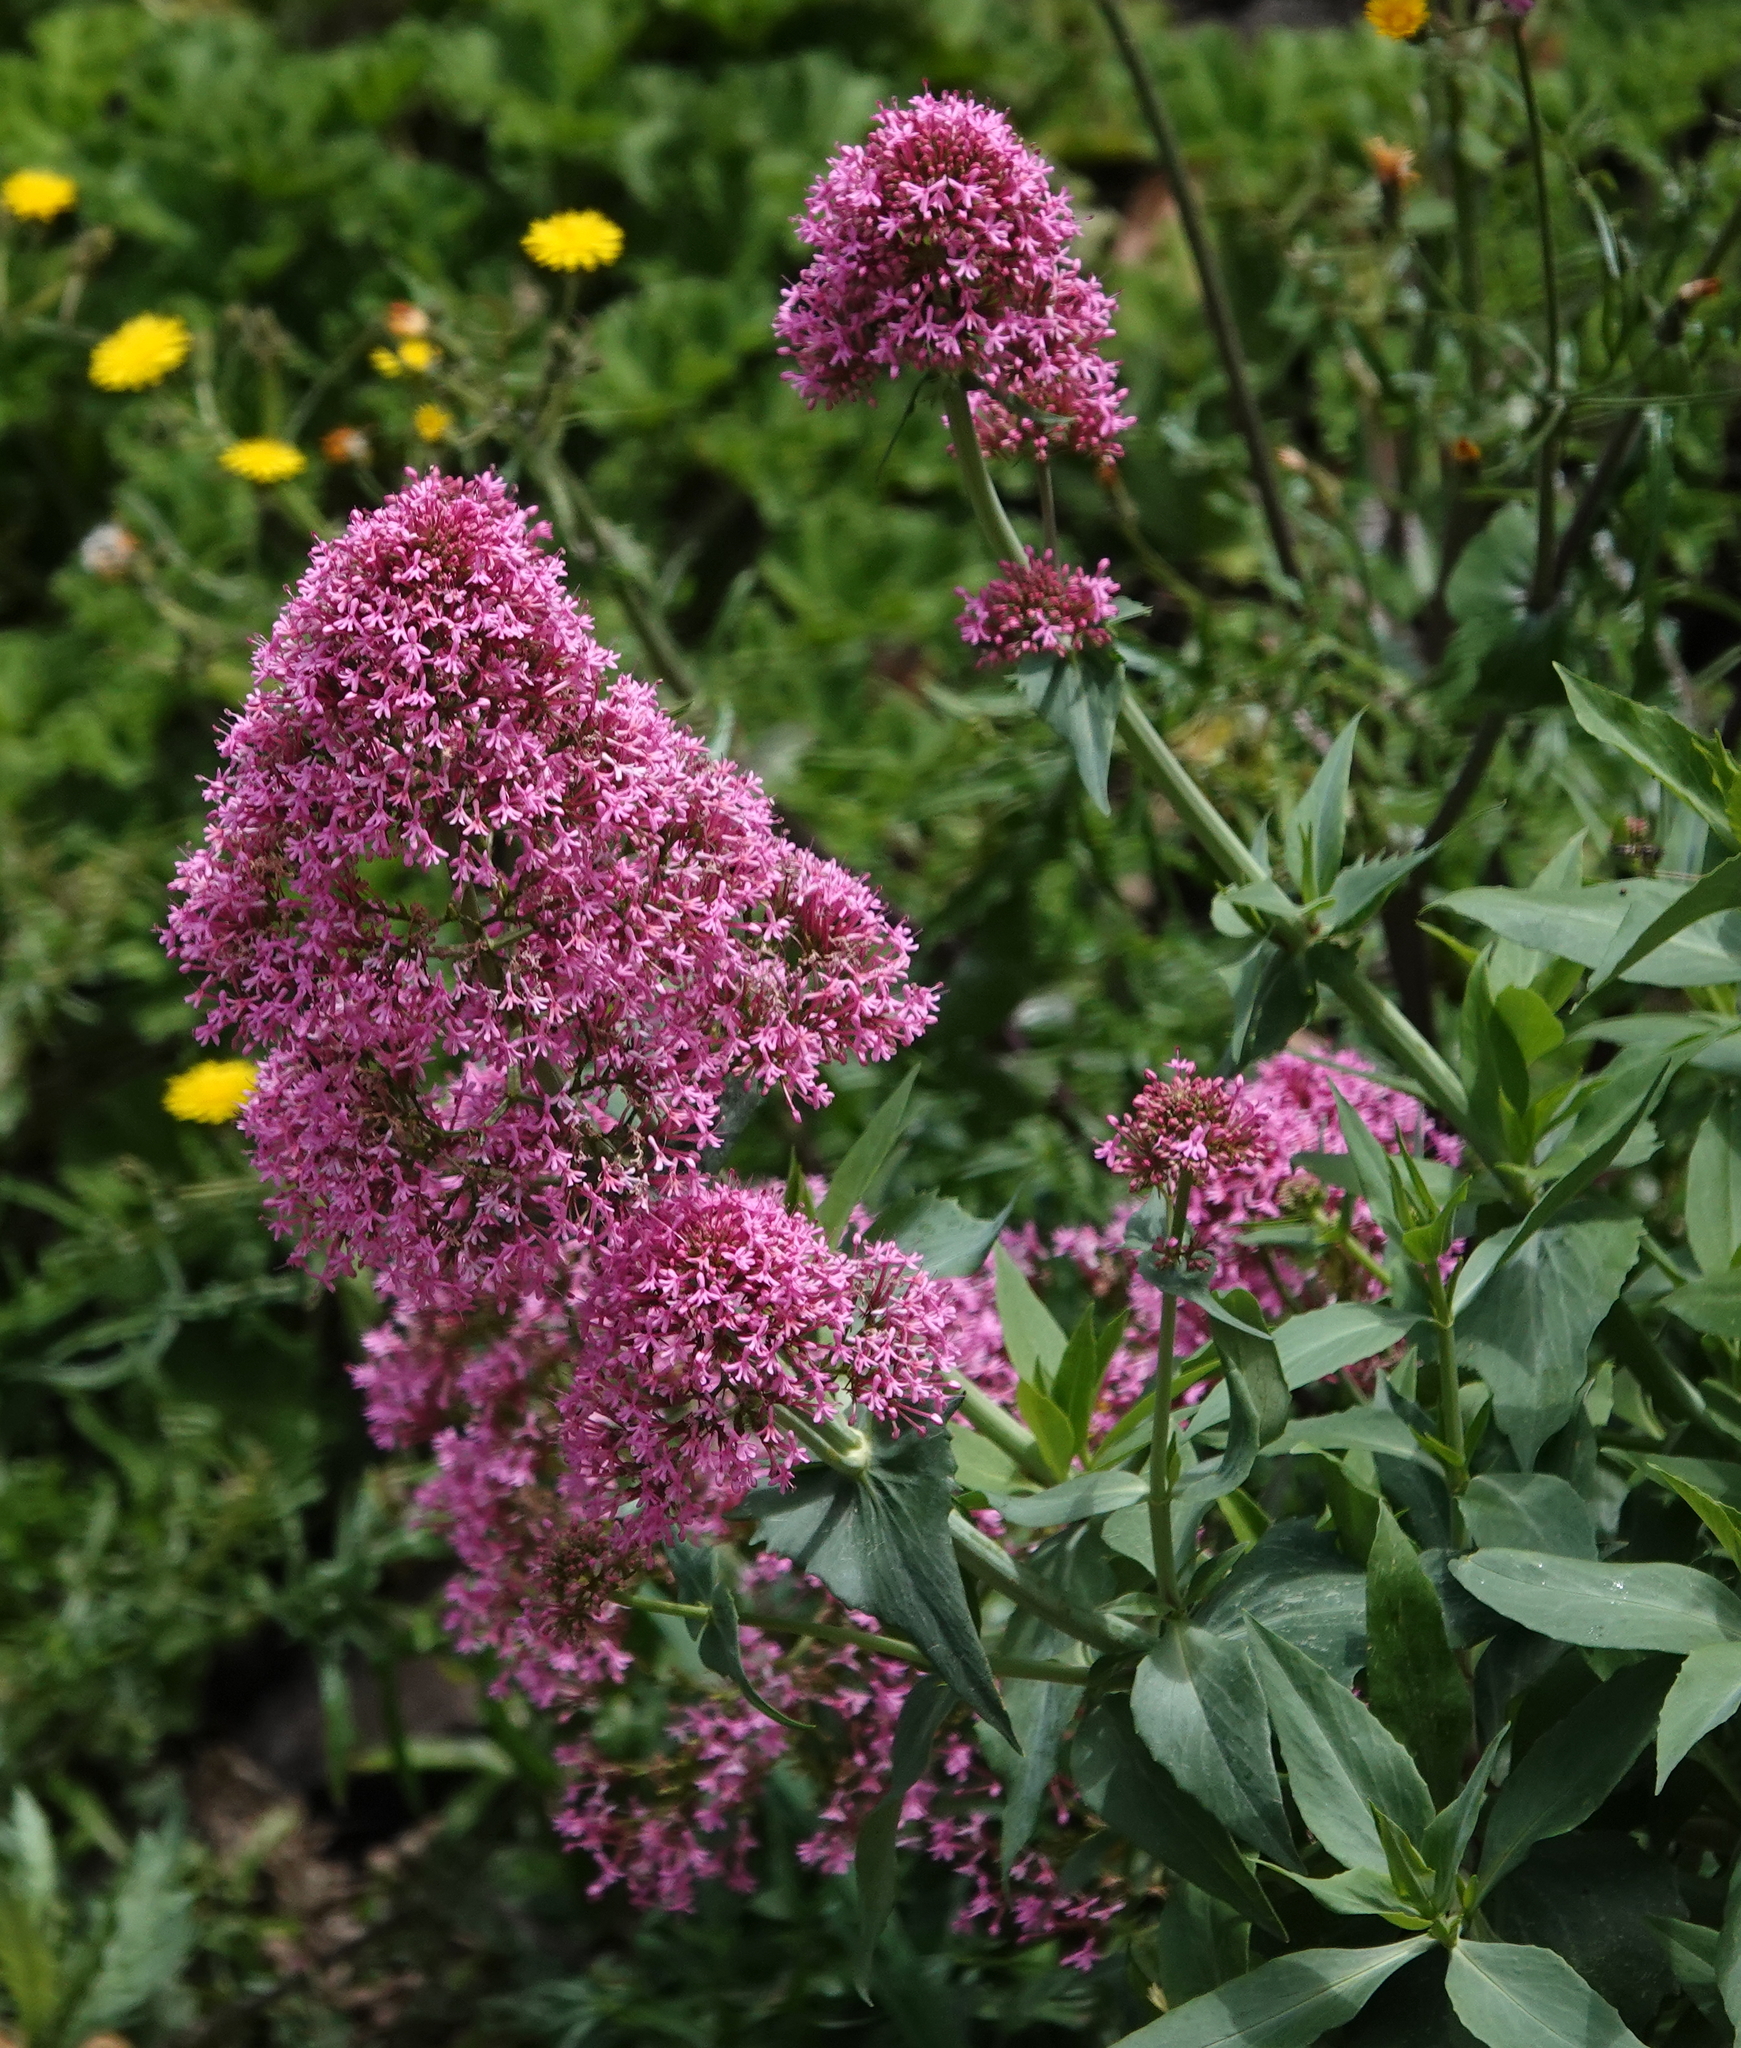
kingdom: Plantae
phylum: Tracheophyta
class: Magnoliopsida
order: Dipsacales
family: Caprifoliaceae
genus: Centranthus
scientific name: Centranthus ruber
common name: Red valerian
